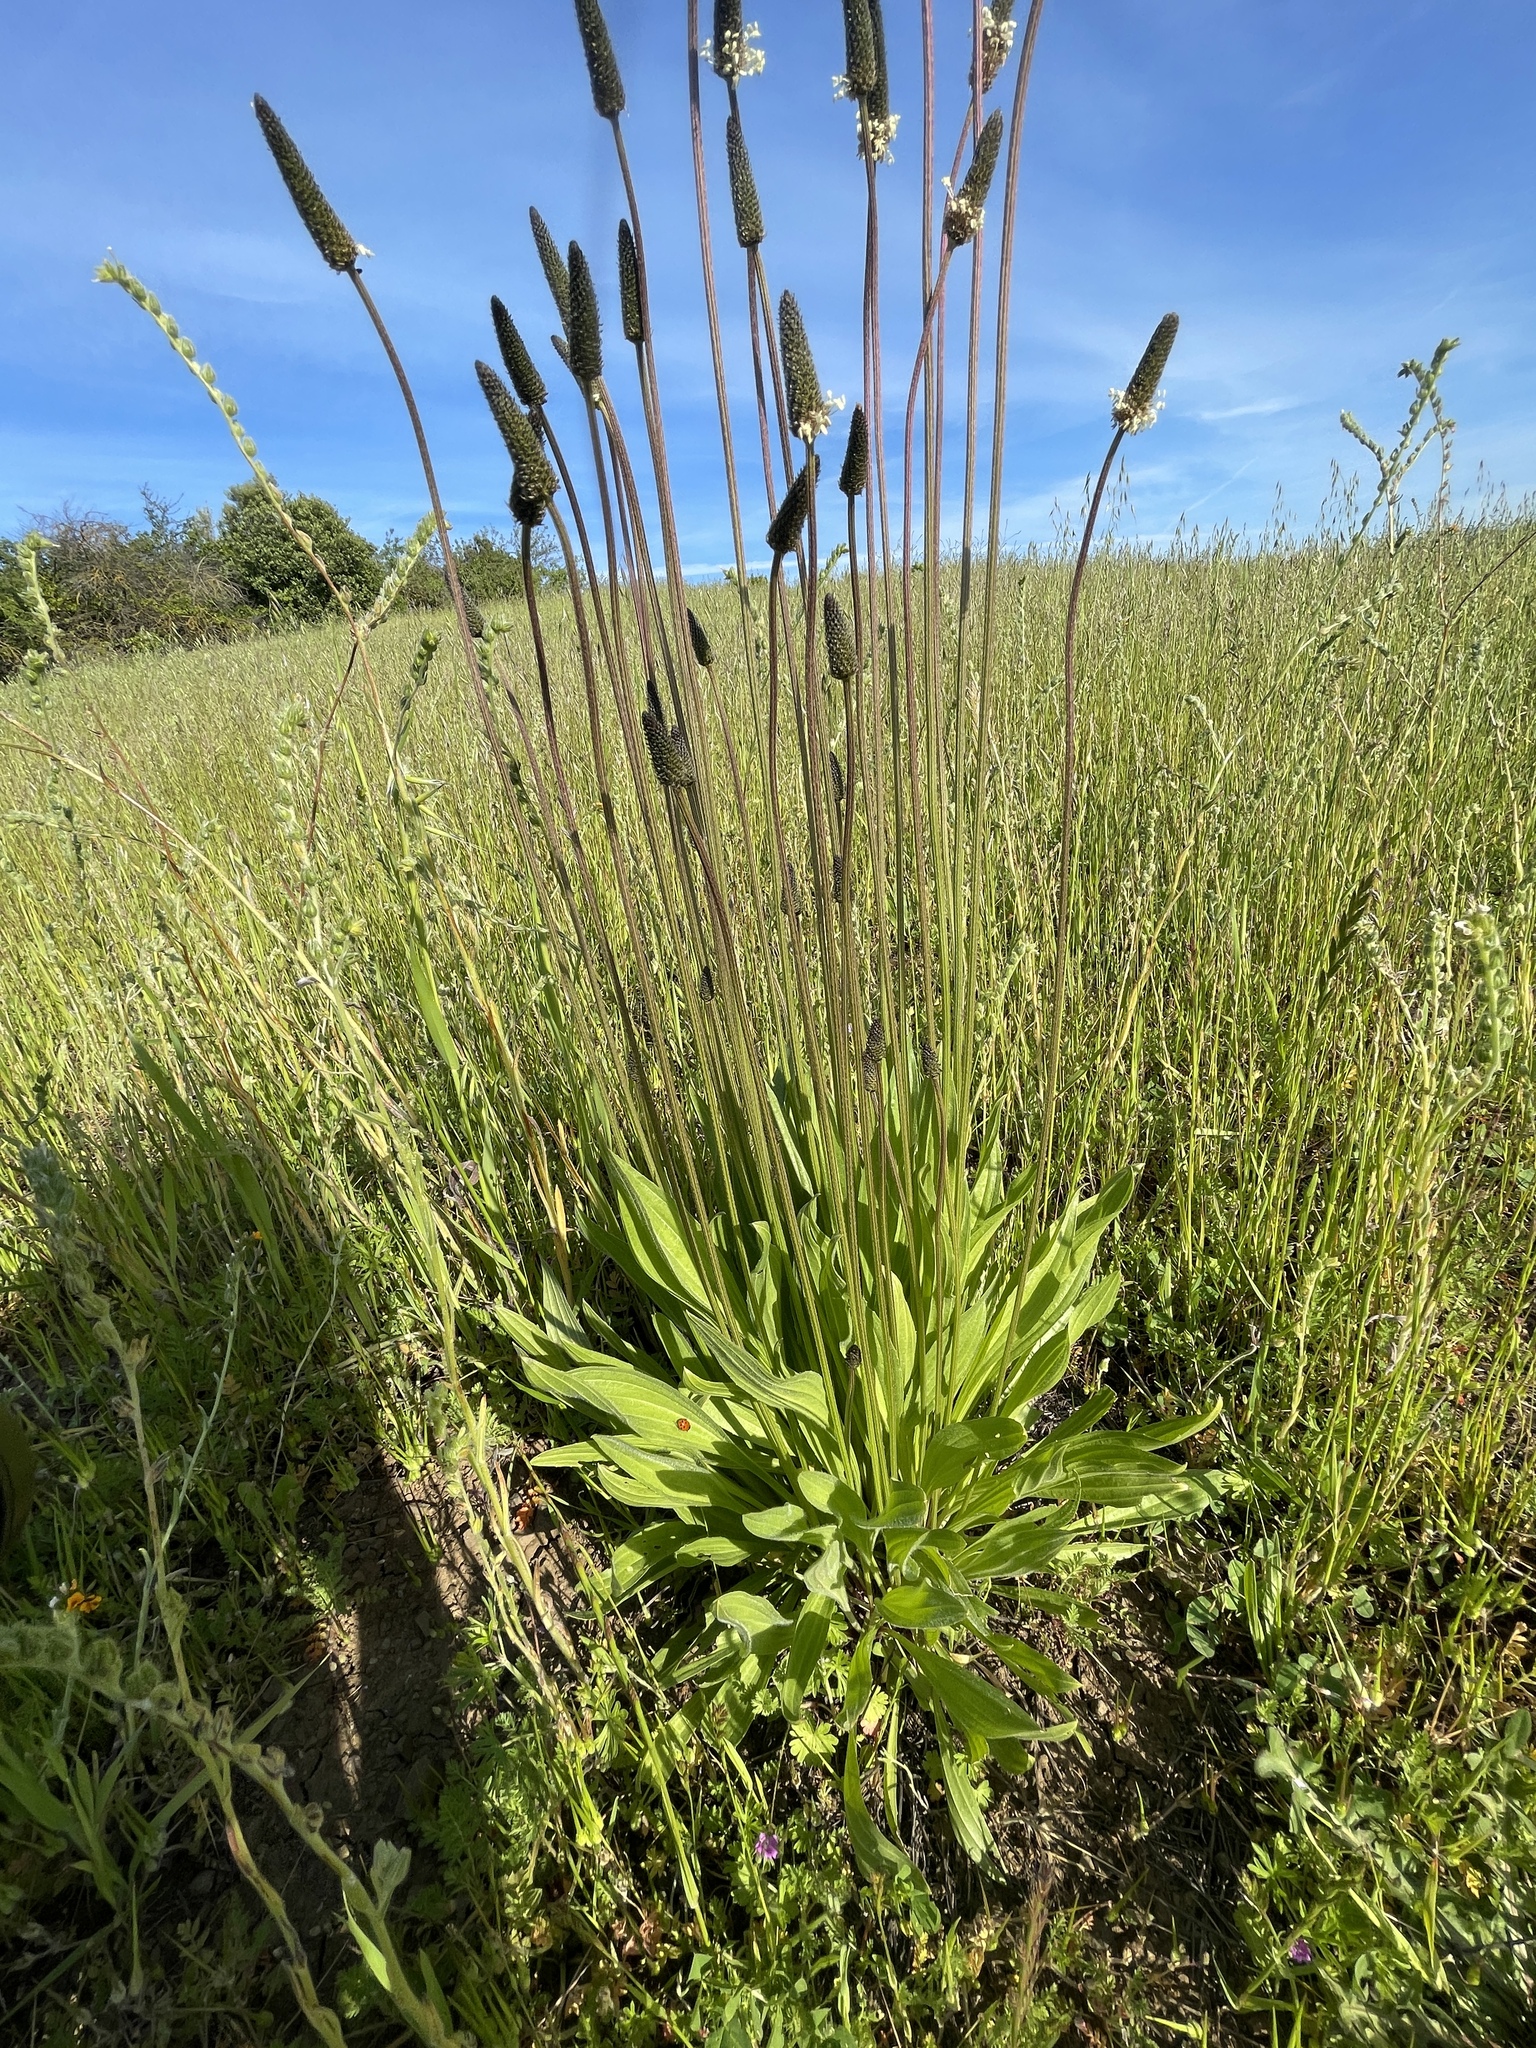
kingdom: Plantae
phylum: Tracheophyta
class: Magnoliopsida
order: Lamiales
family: Plantaginaceae
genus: Plantago
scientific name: Plantago lanceolata
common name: Ribwort plantain
